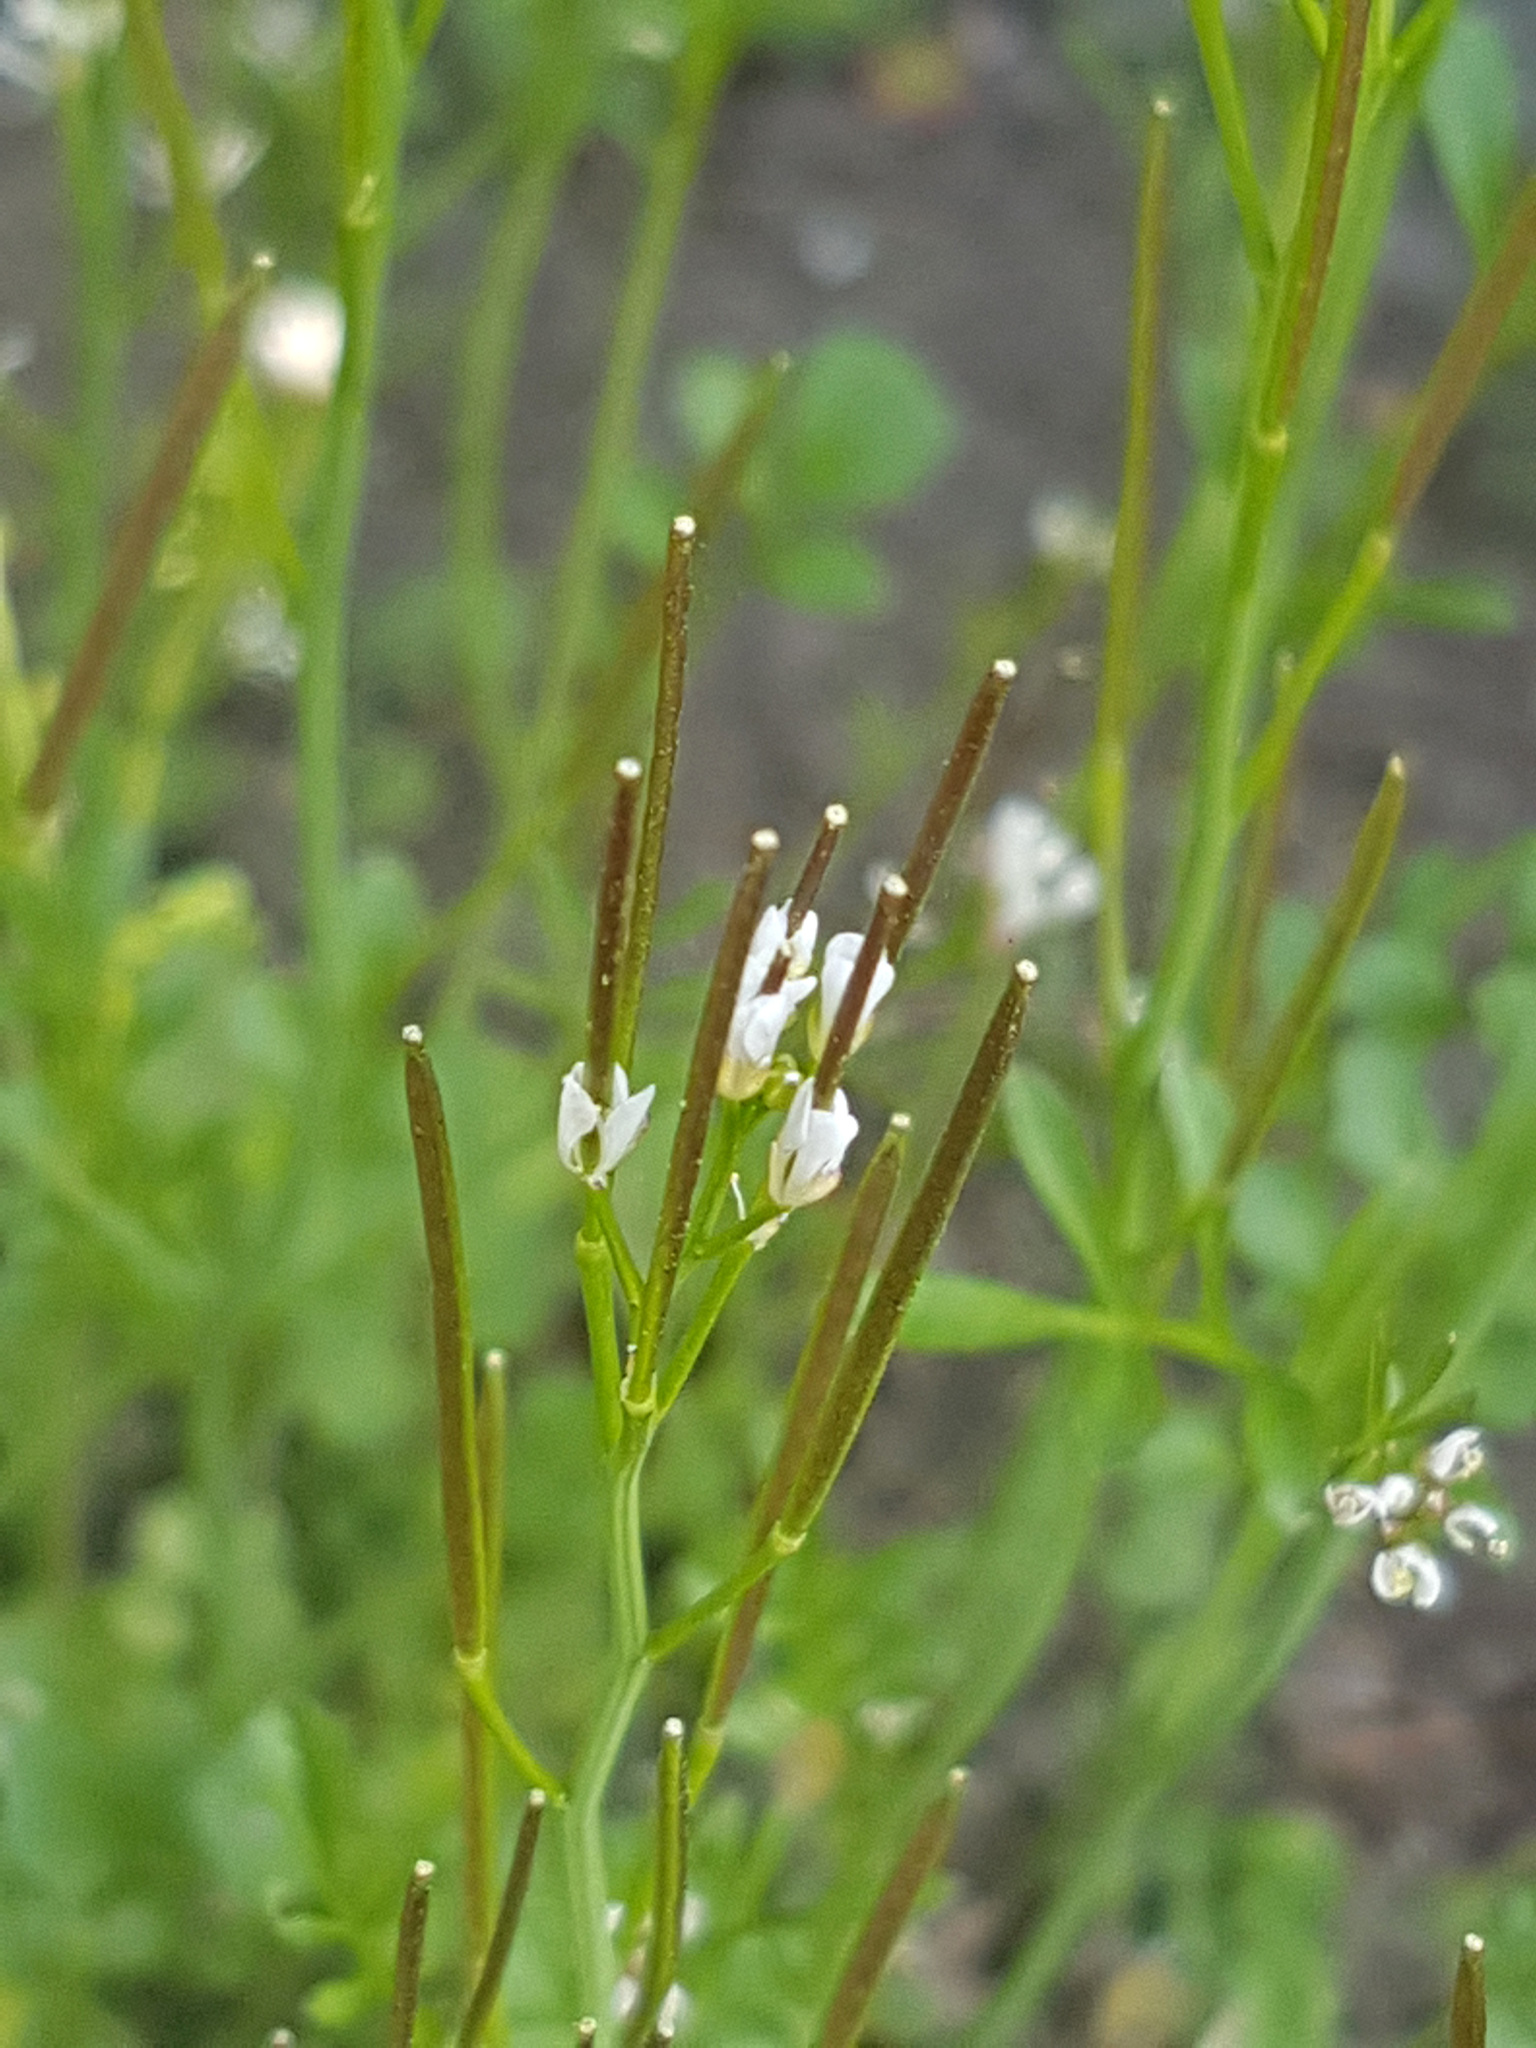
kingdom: Plantae
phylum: Tracheophyta
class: Magnoliopsida
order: Brassicales
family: Brassicaceae
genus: Cardamine
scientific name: Cardamine hirsuta
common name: Hairy bittercress
